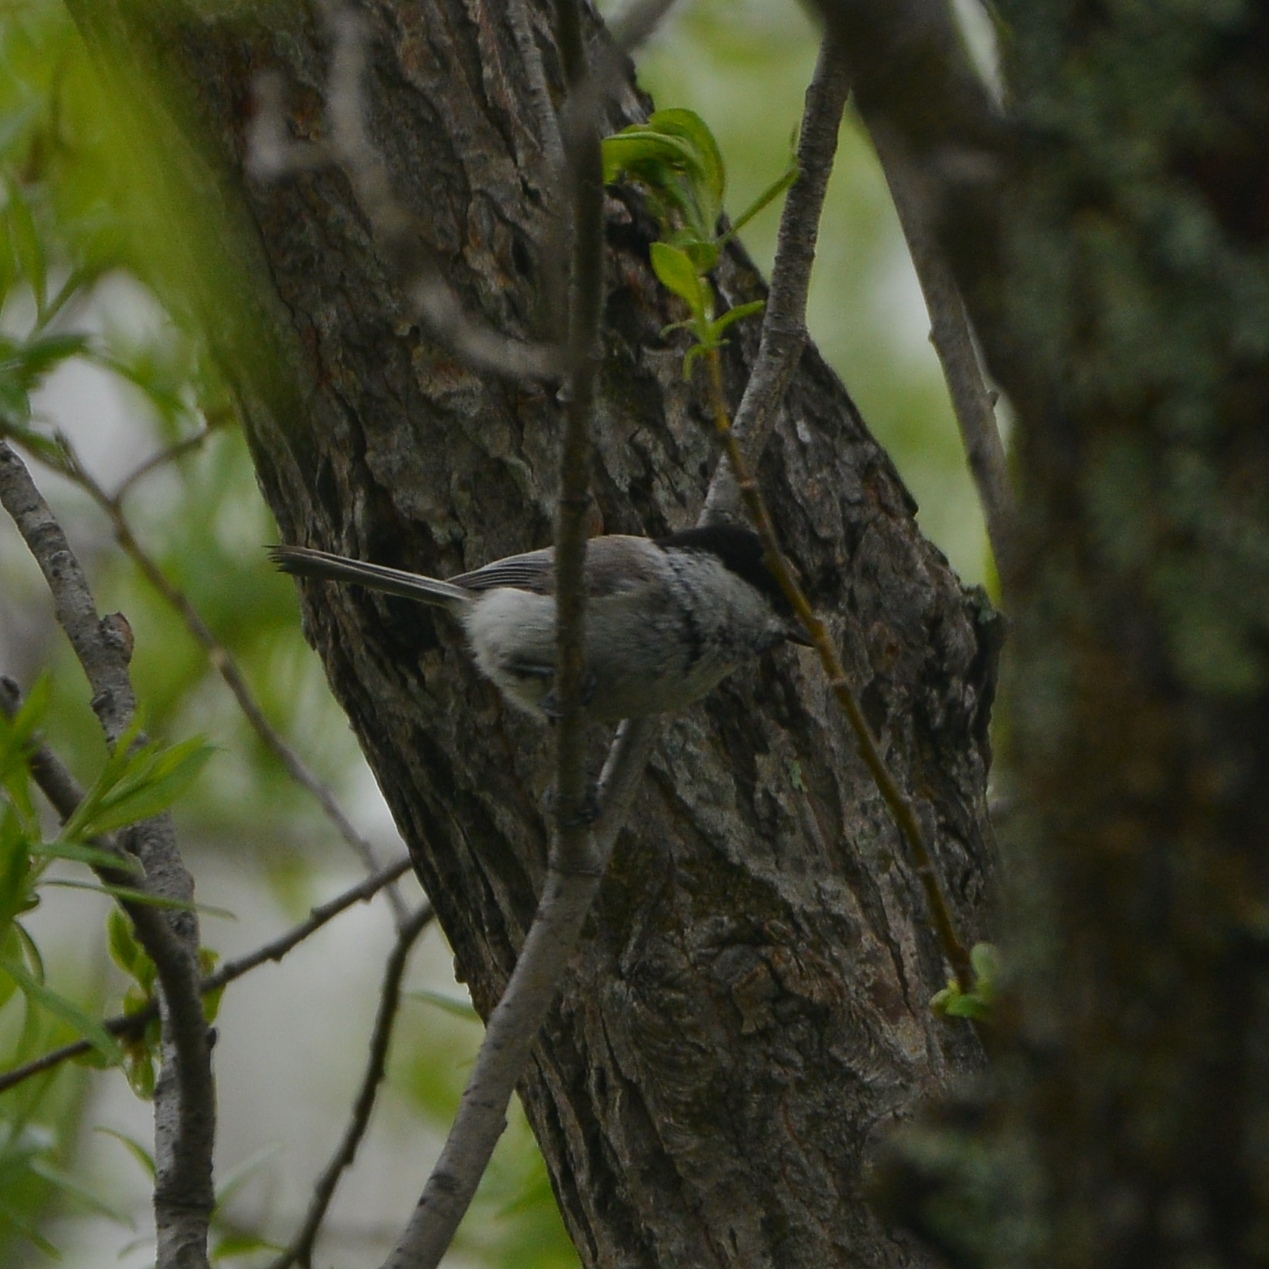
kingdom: Animalia
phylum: Chordata
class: Aves
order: Passeriformes
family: Paridae
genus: Poecile
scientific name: Poecile palustris
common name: Marsh tit
